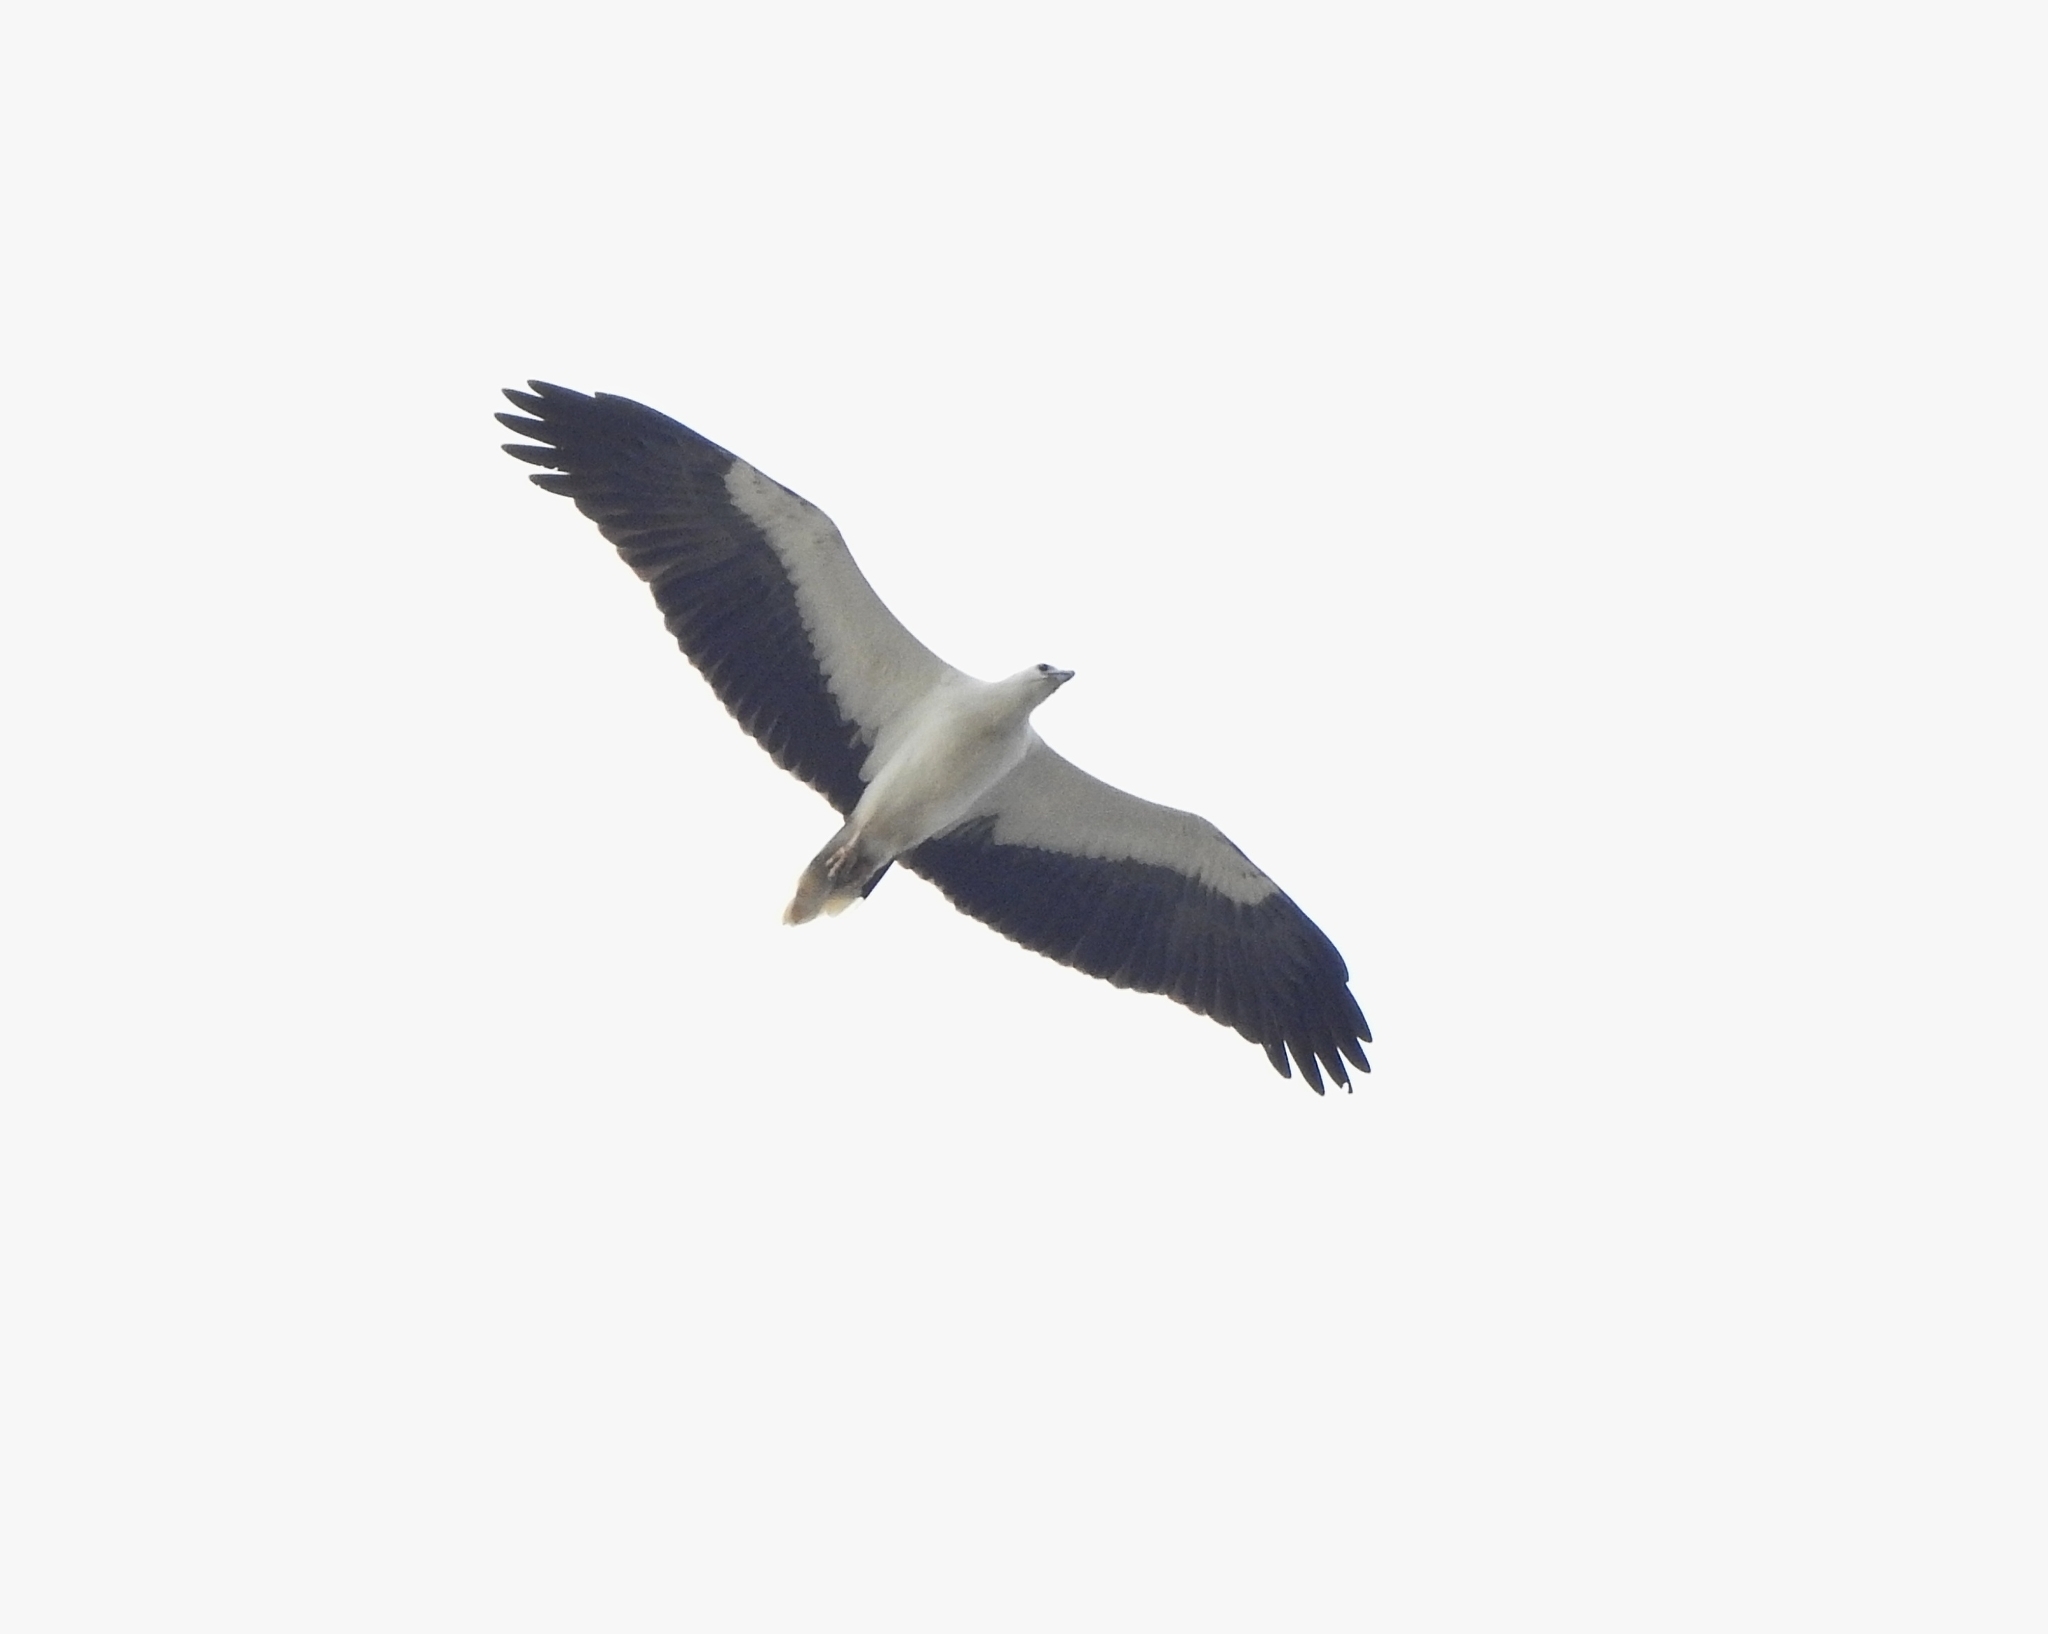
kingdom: Animalia
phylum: Chordata
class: Aves
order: Accipitriformes
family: Accipitridae
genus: Haliaeetus
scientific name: Haliaeetus leucogaster
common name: White-bellied sea eagle
